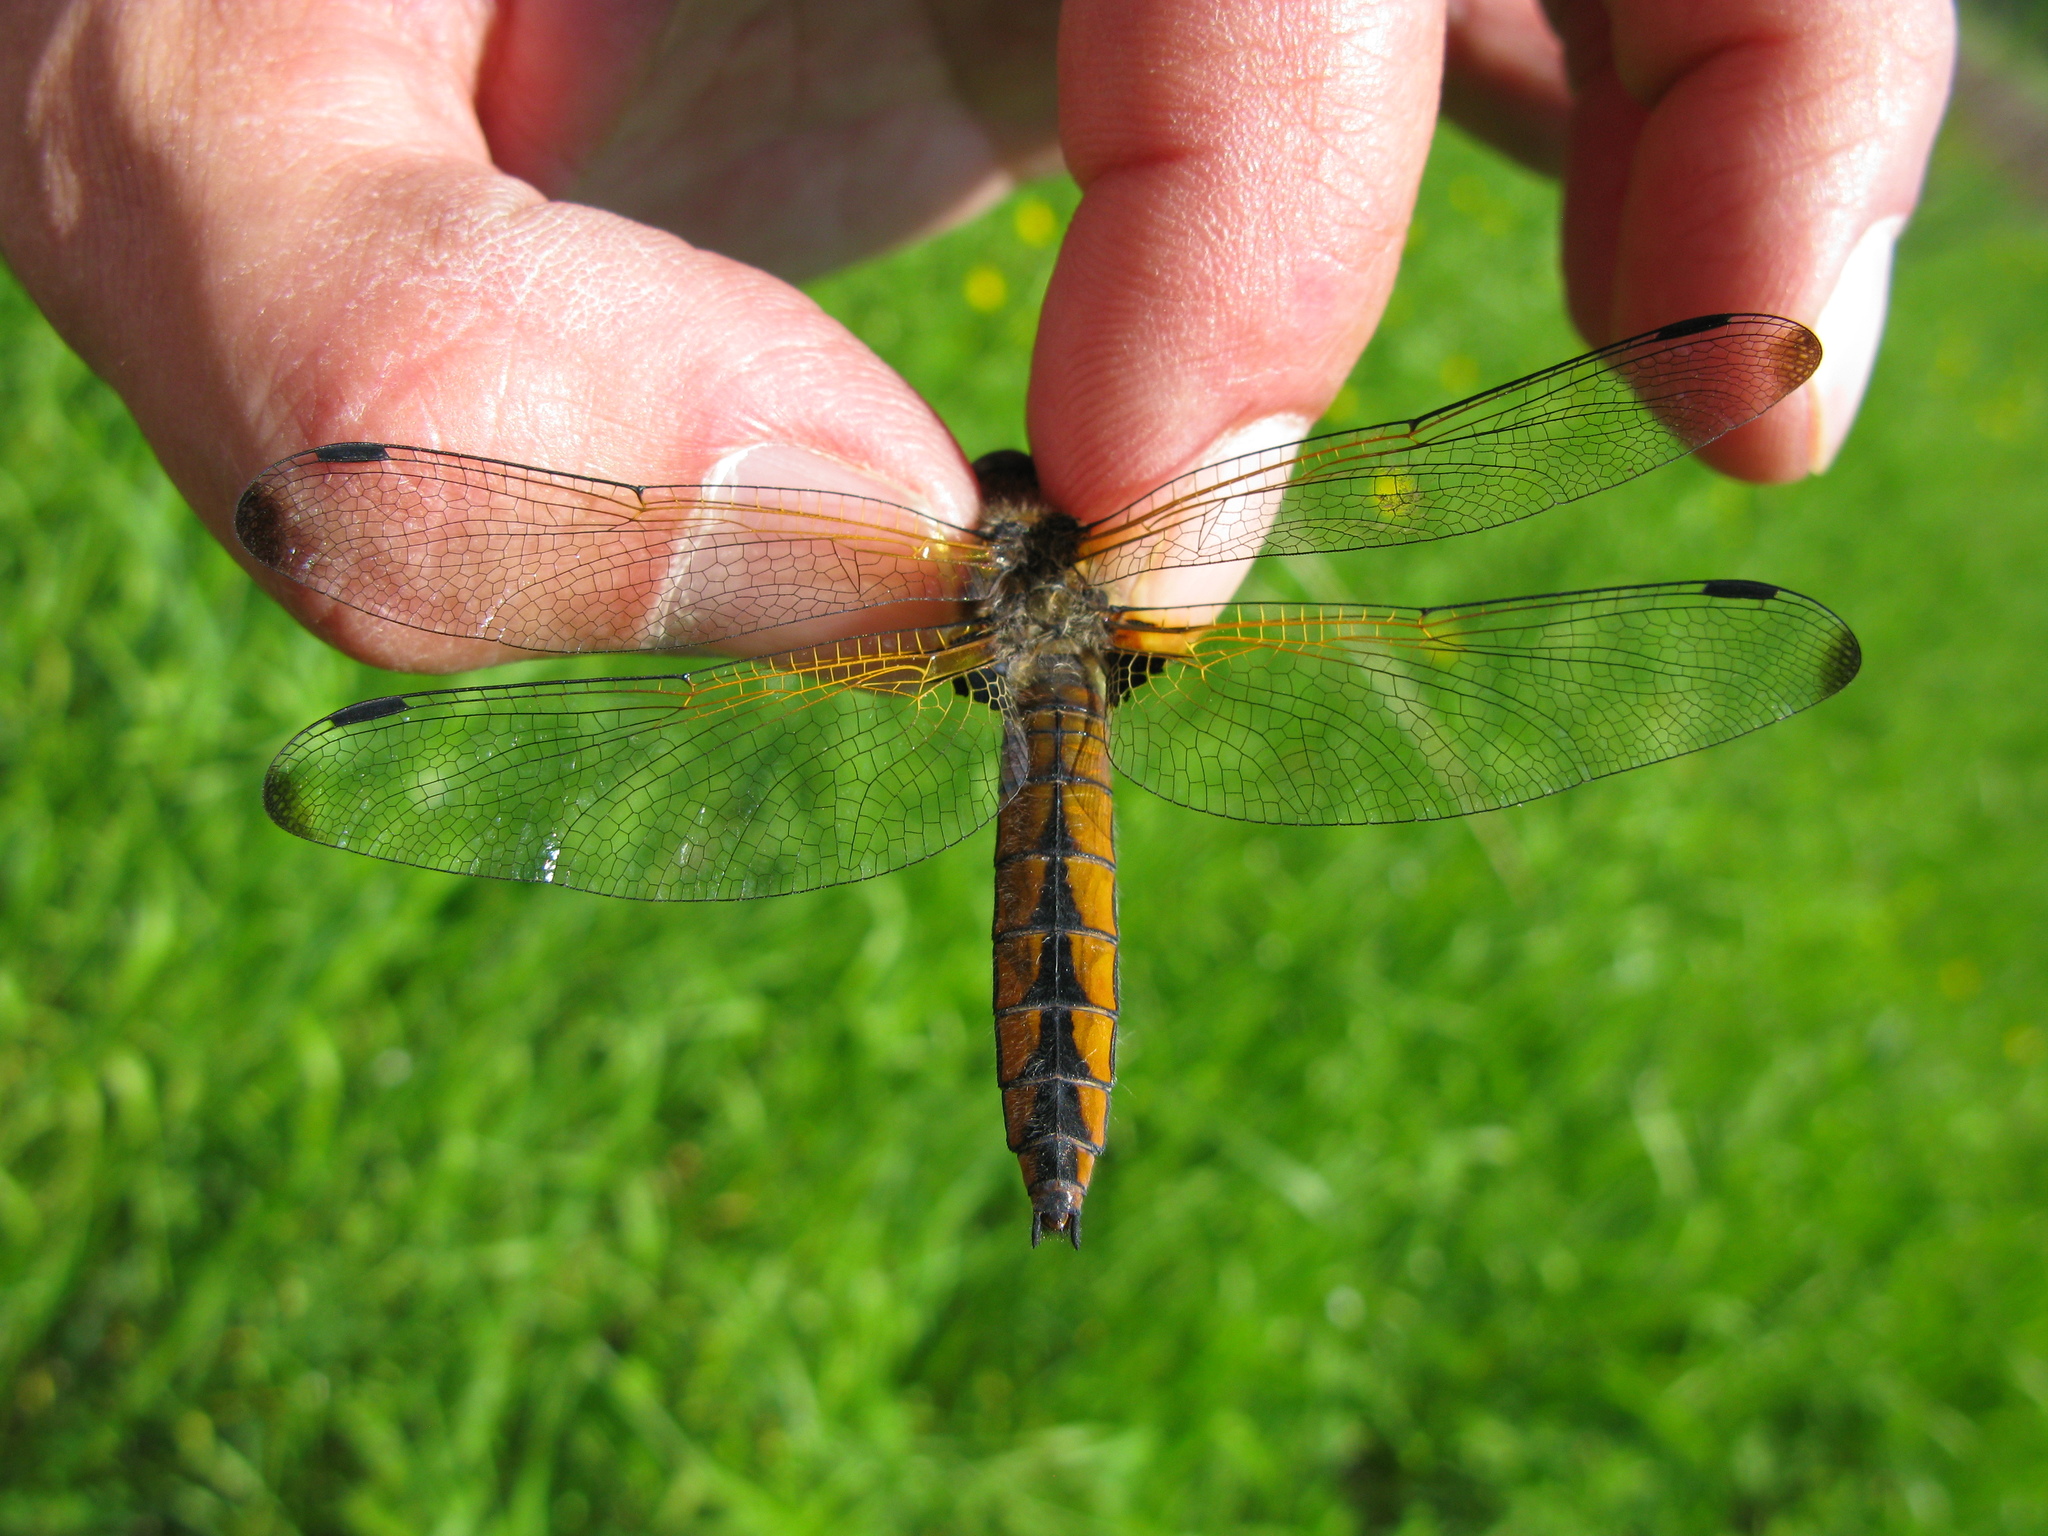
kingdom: Animalia
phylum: Arthropoda
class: Insecta
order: Odonata
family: Libellulidae
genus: Libellula
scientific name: Libellula fulva
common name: Blue chaser
